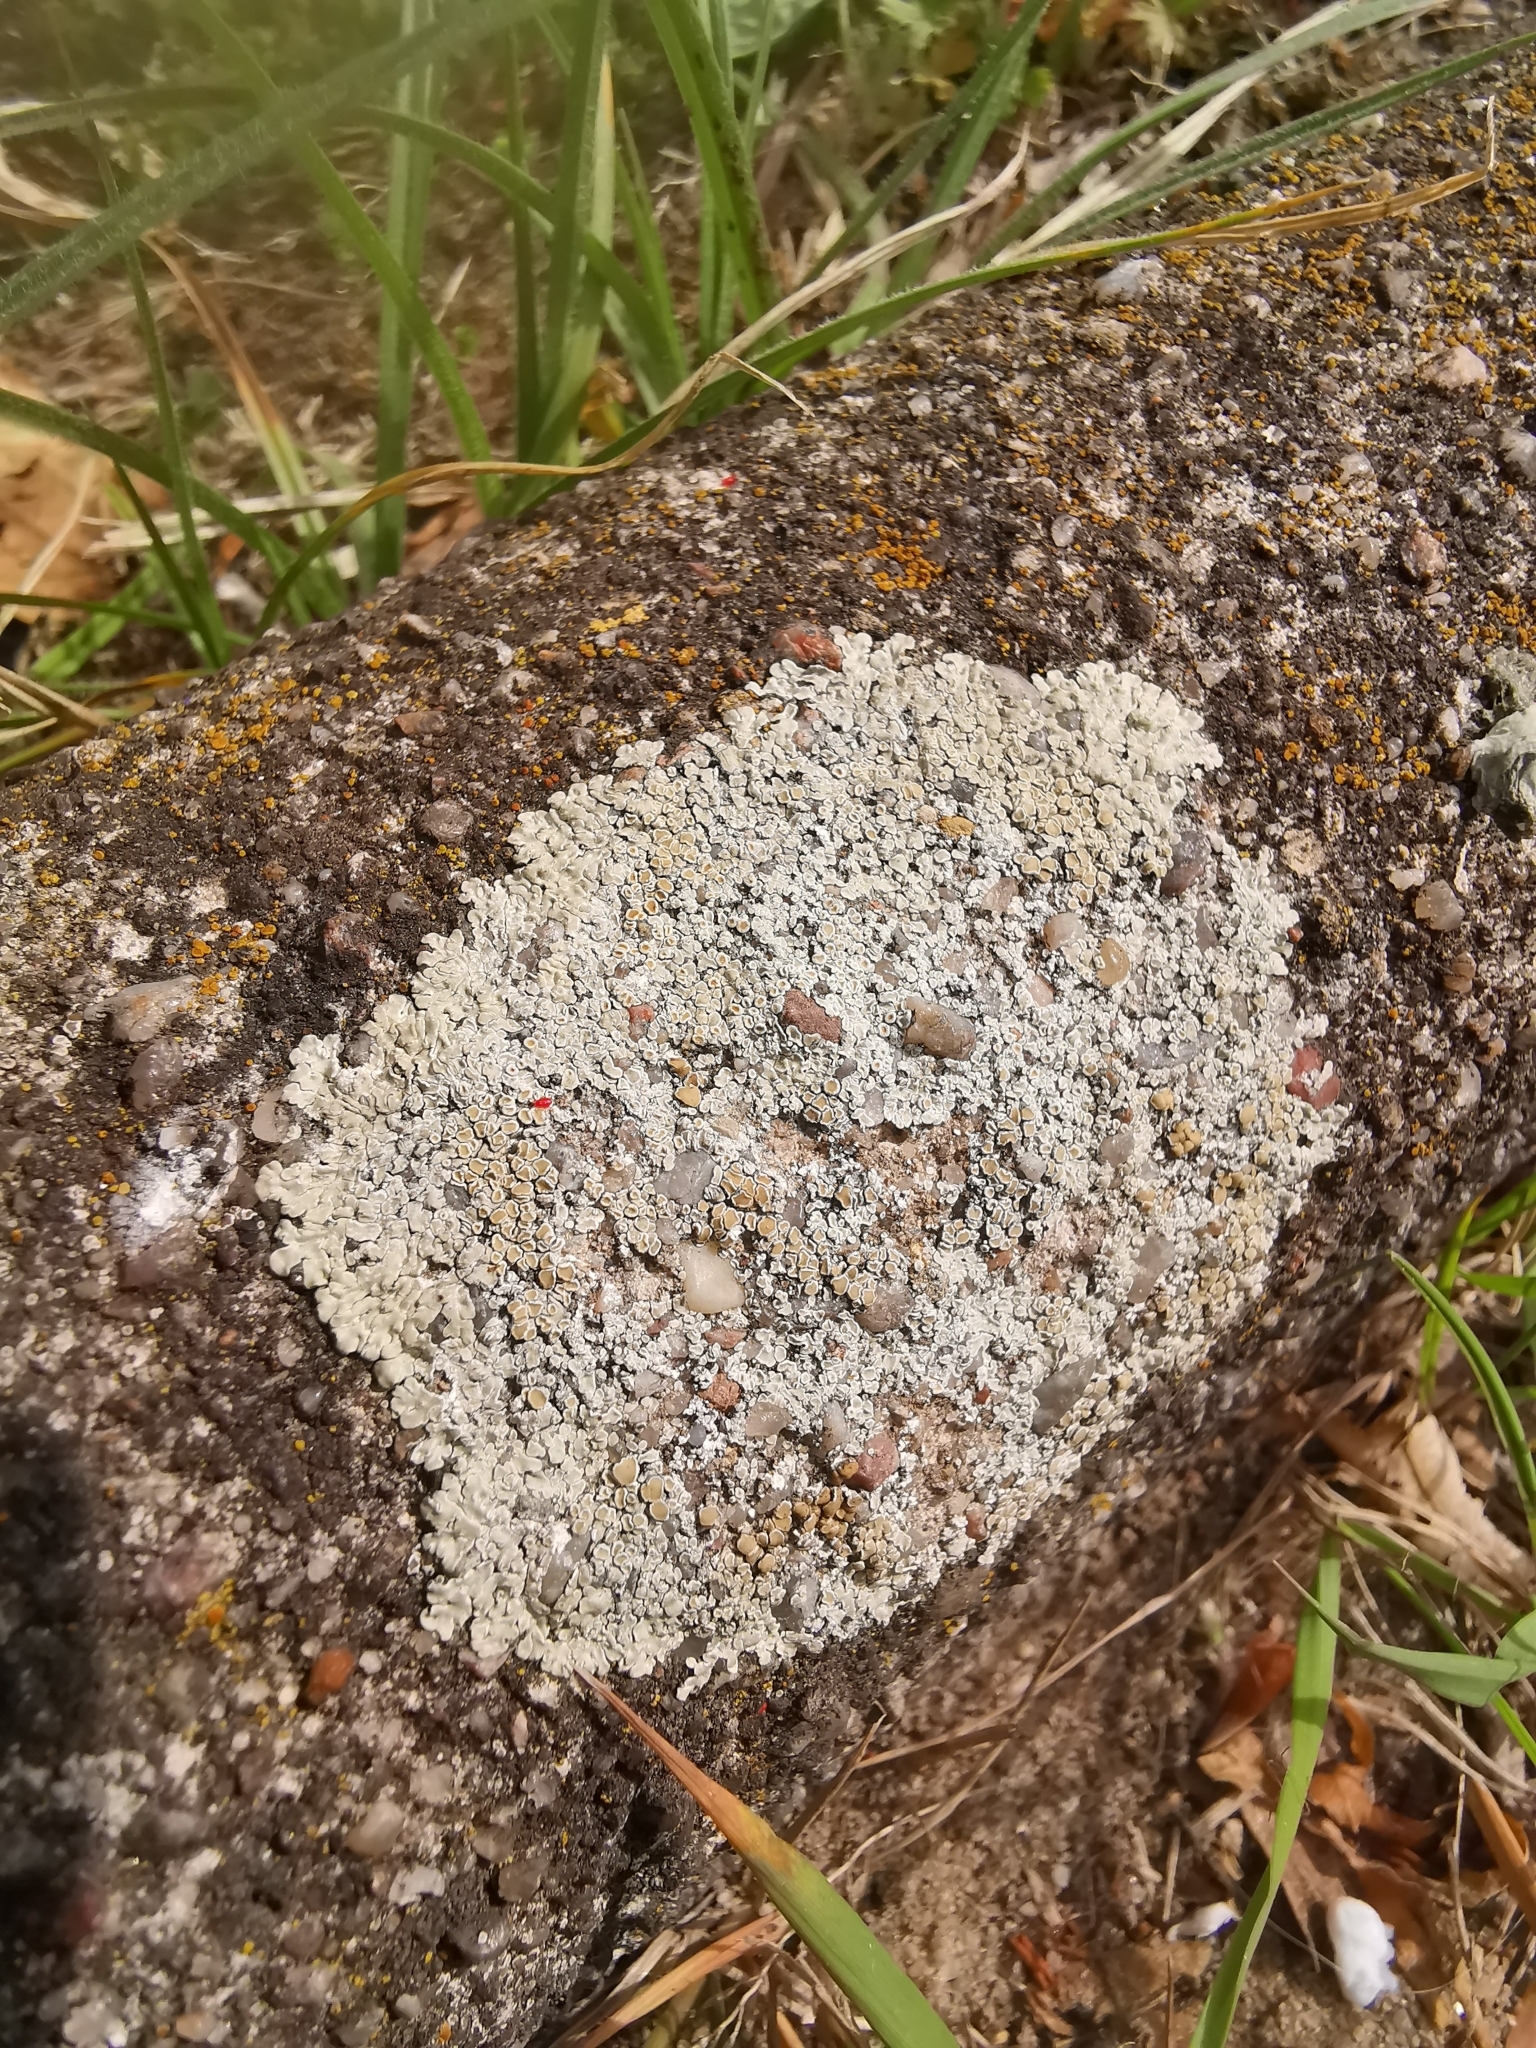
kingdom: Fungi
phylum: Ascomycota
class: Lecanoromycetes
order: Lecanorales
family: Lecanoraceae
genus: Protoparmeliopsis
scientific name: Protoparmeliopsis muralis
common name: Stonewall rim lichen
